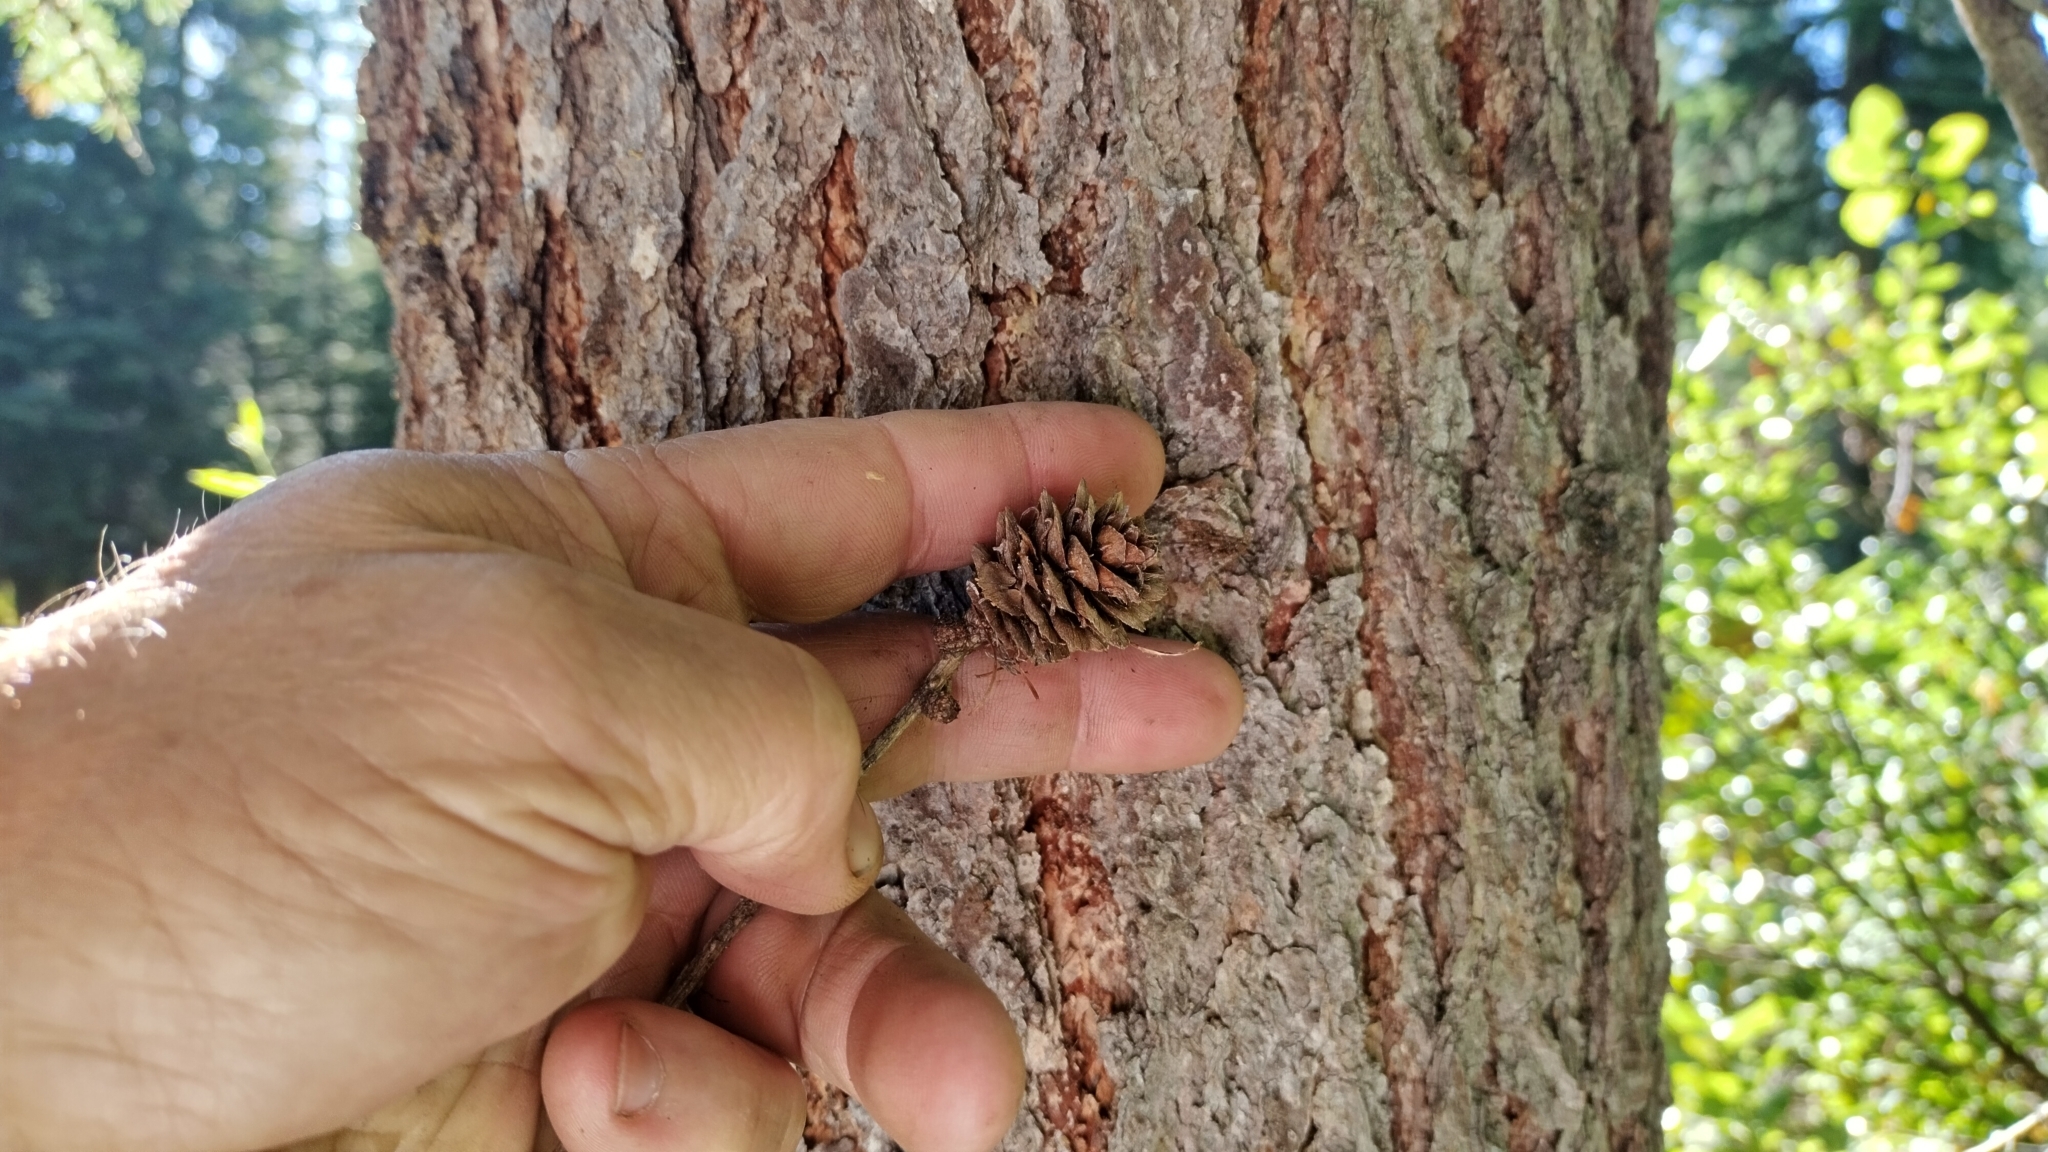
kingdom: Plantae
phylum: Tracheophyta
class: Pinopsida
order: Pinales
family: Pinaceae
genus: Larix
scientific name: Larix occidentalis
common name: Western larch
